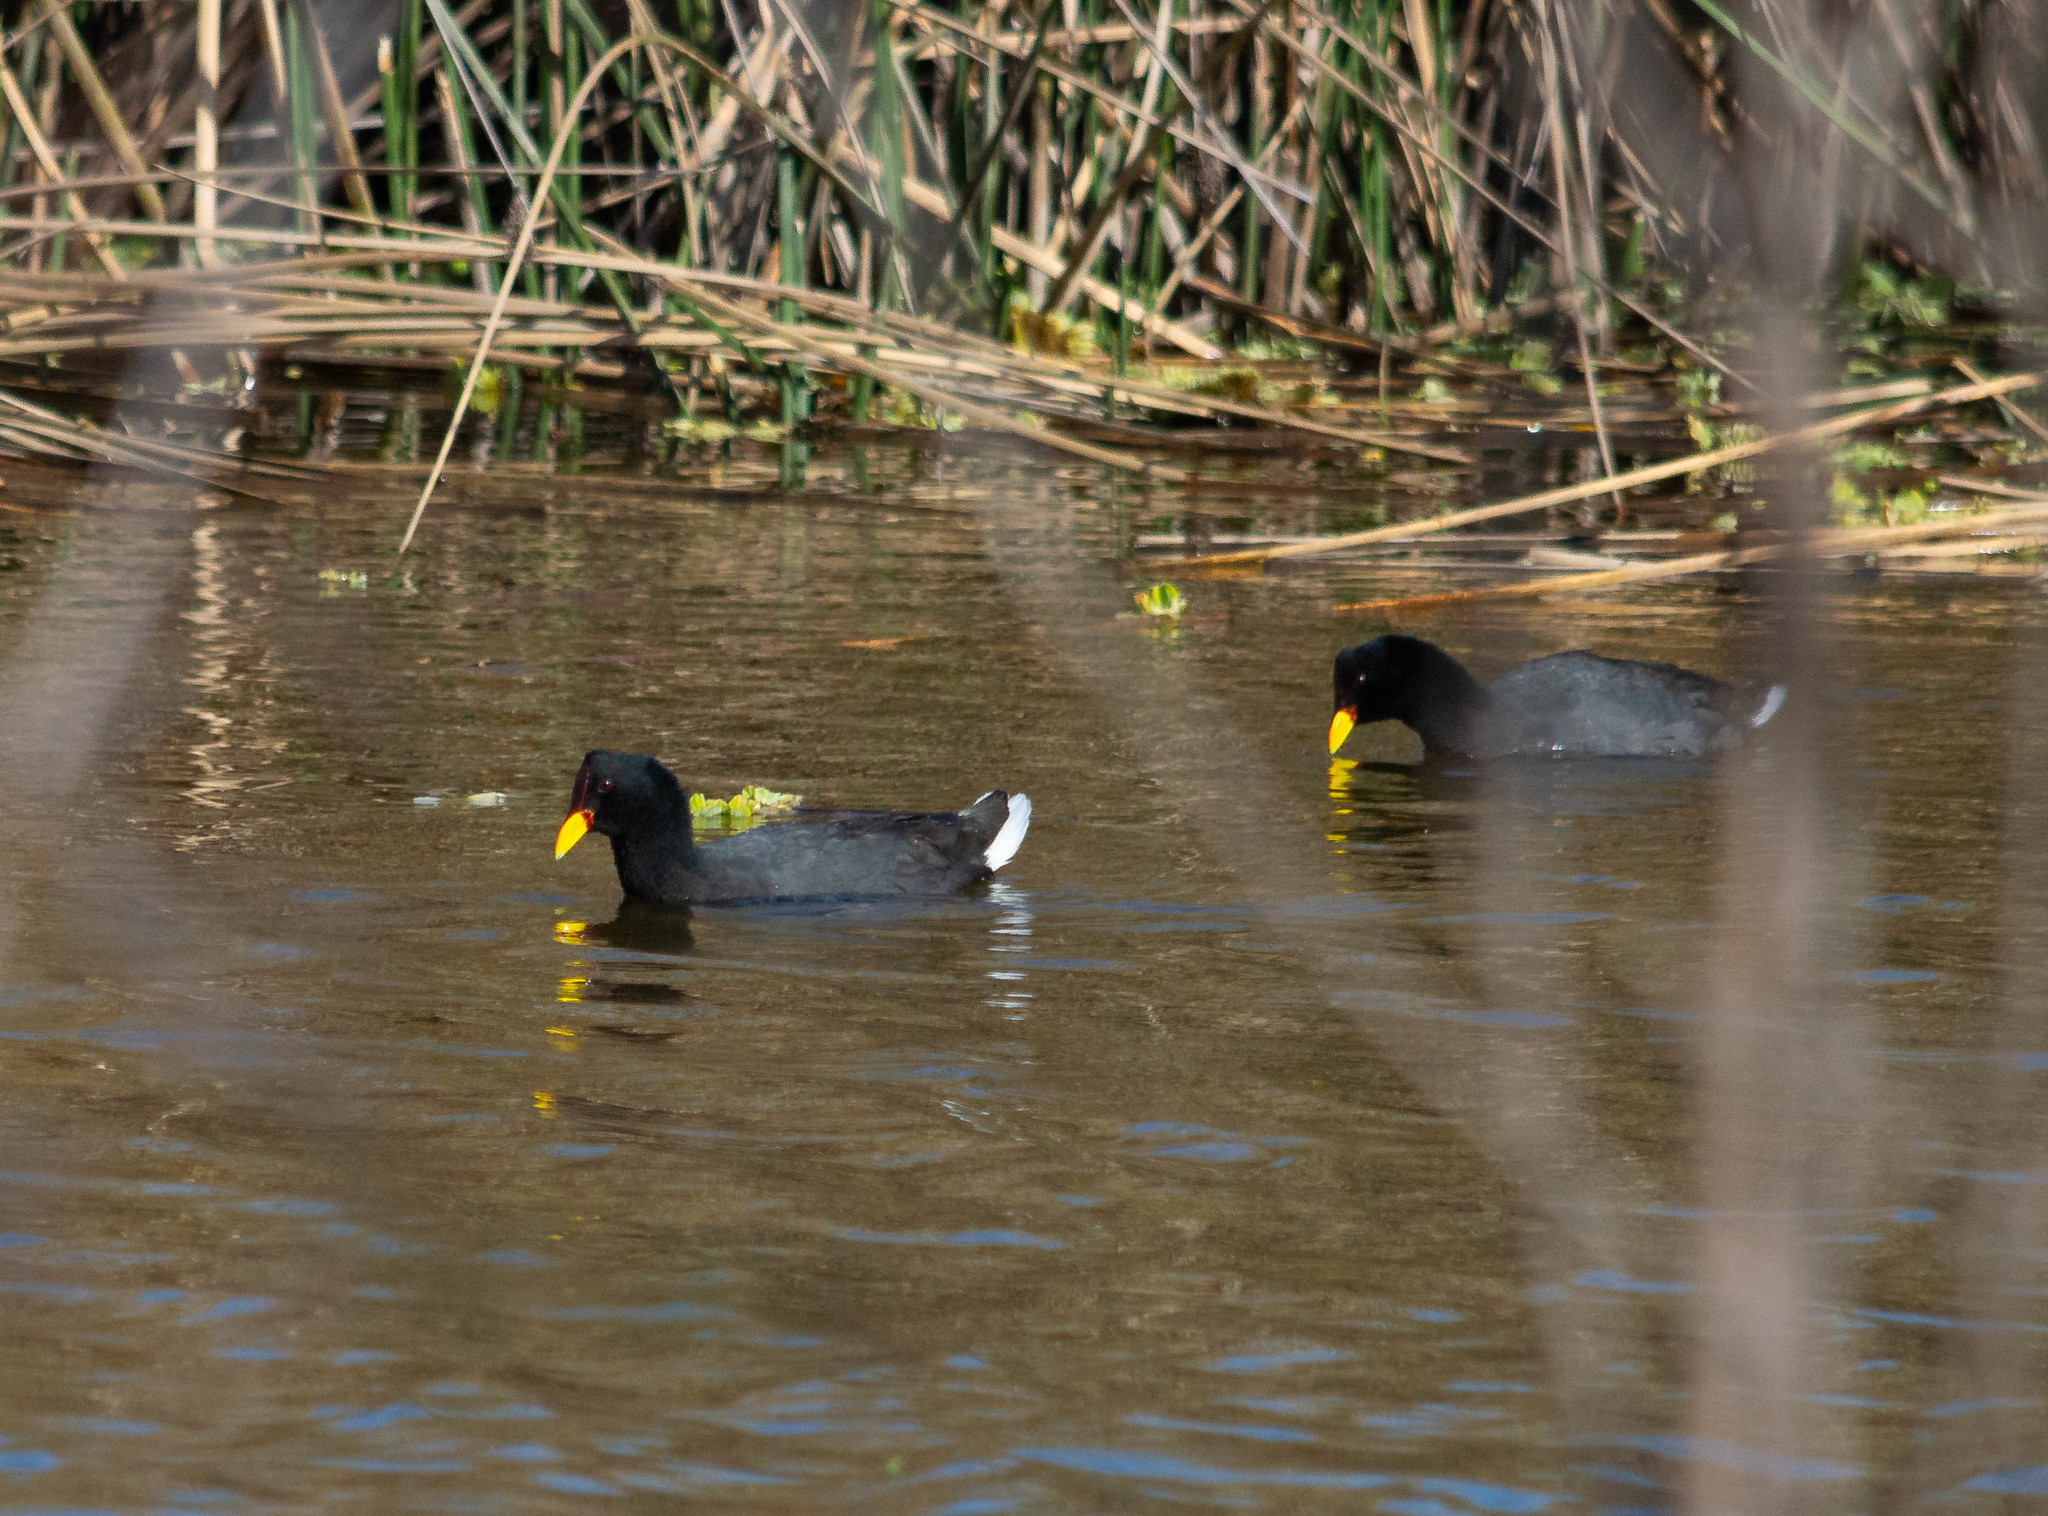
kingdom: Animalia
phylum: Chordata
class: Aves
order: Gruiformes
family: Rallidae
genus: Fulica
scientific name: Fulica rufifrons
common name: Red-fronted coot
